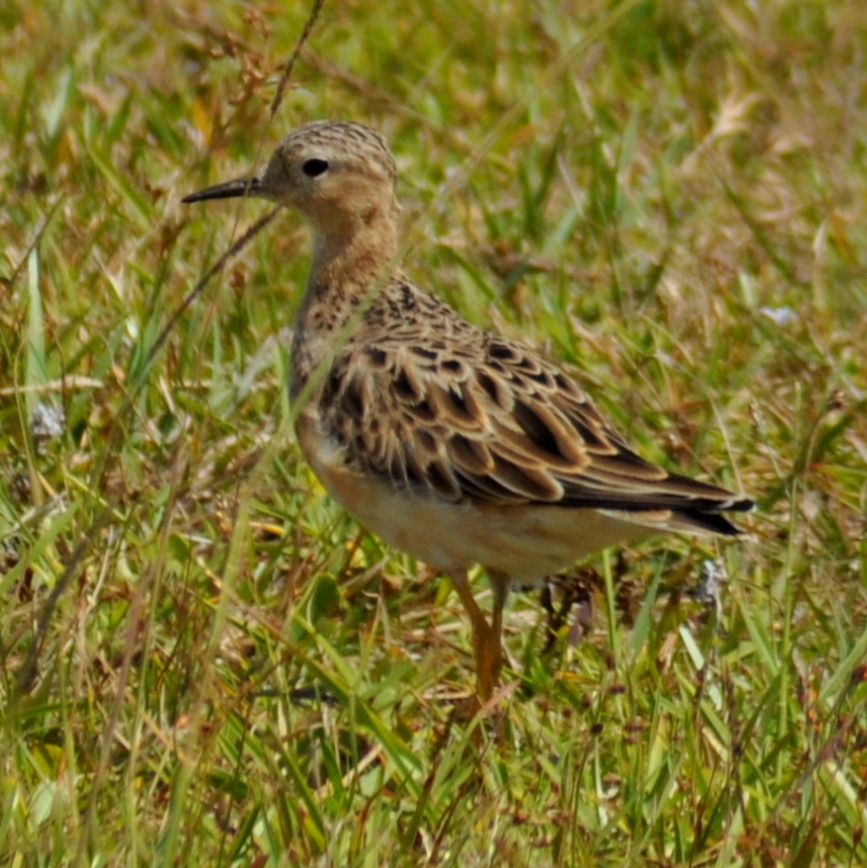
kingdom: Animalia
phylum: Chordata
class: Aves
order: Charadriiformes
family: Scolopacidae
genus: Calidris
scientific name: Calidris subruficollis
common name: Buff-breasted sandpiper
